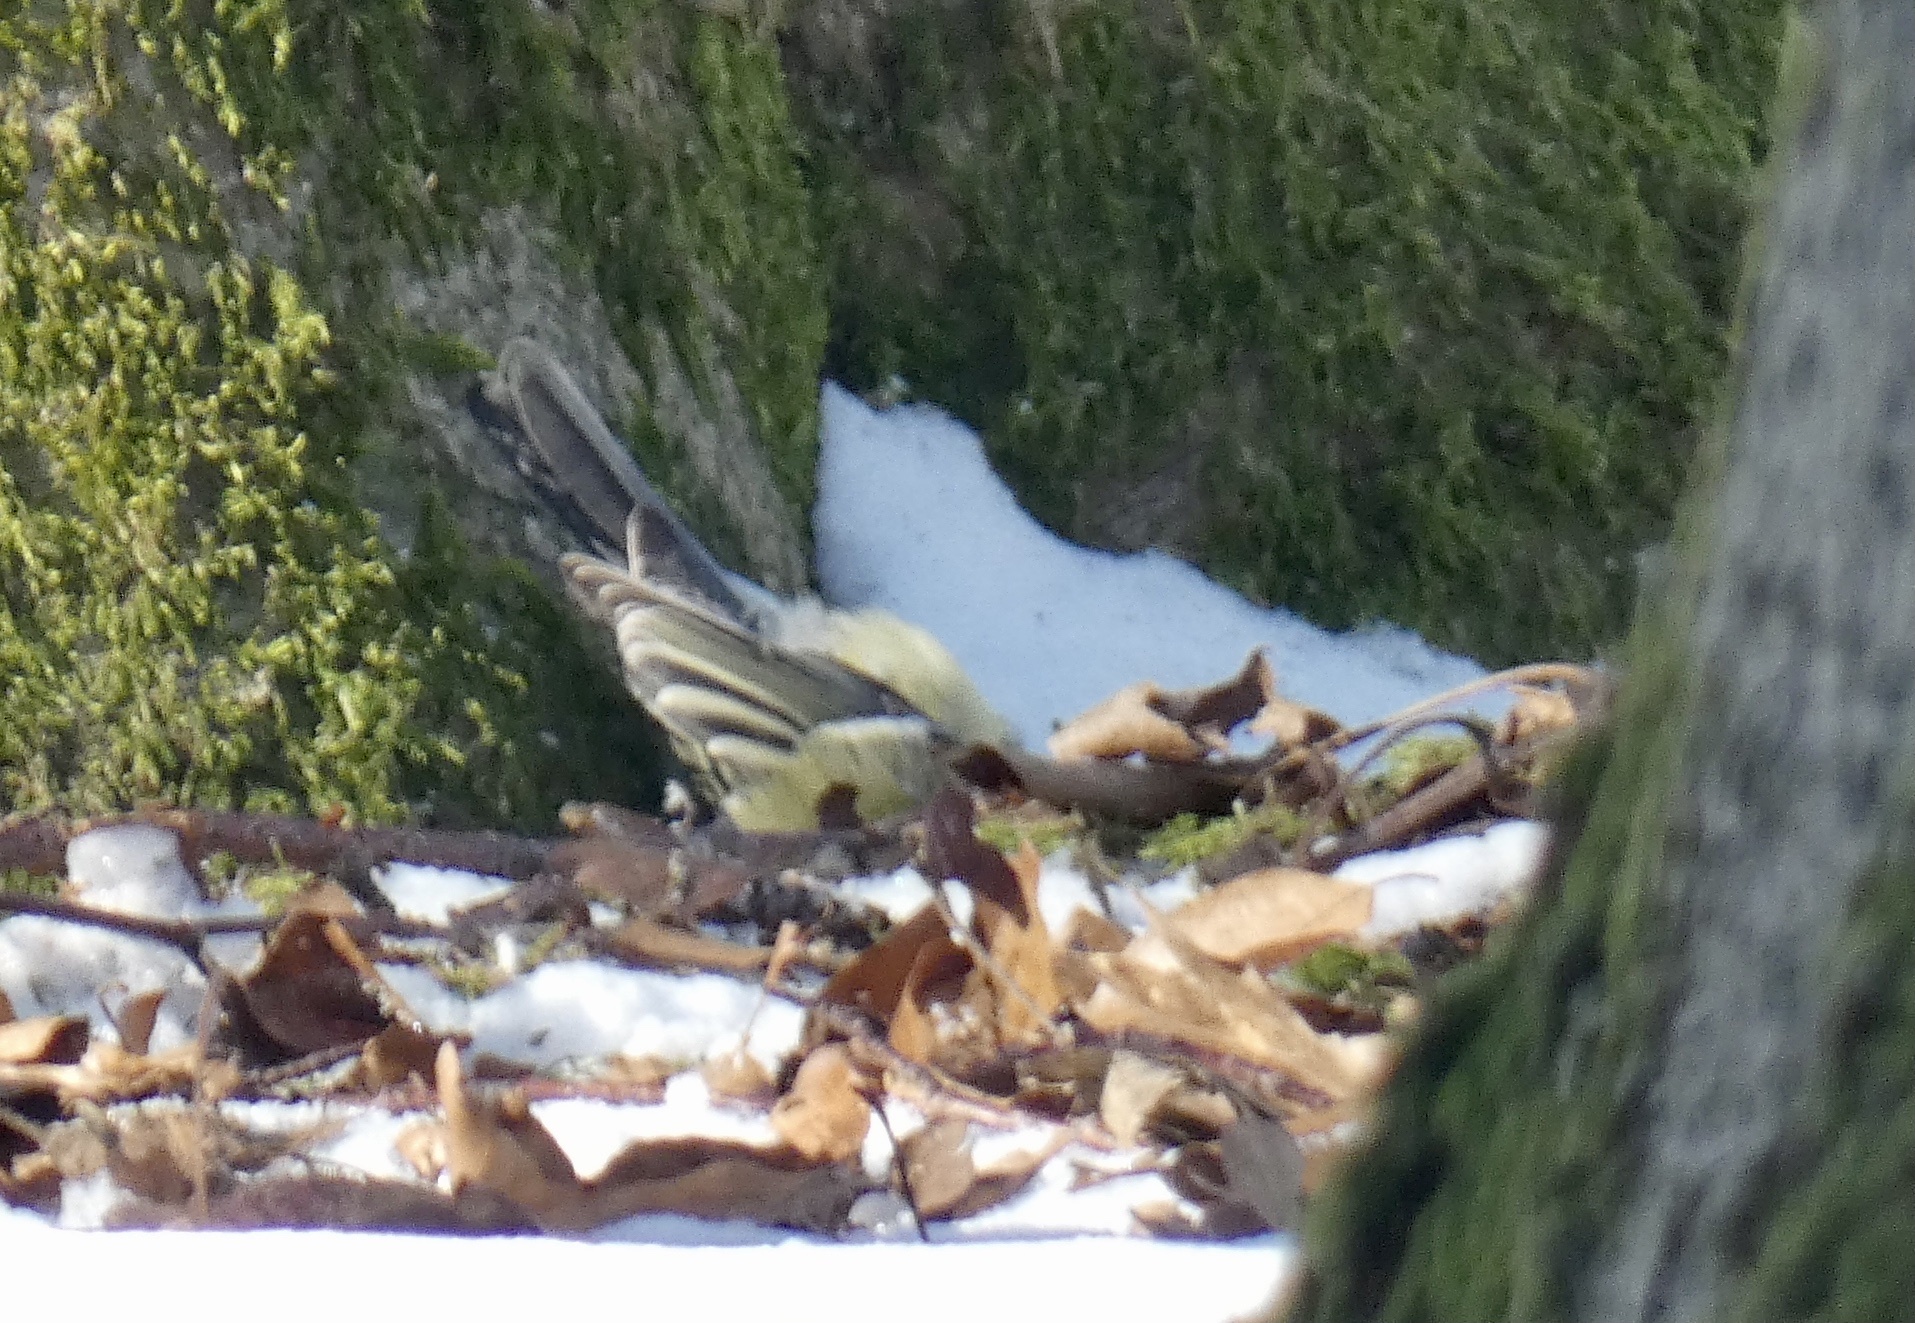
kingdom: Animalia
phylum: Chordata
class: Aves
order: Passeriformes
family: Paridae
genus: Parus
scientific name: Parus major
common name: Great tit
